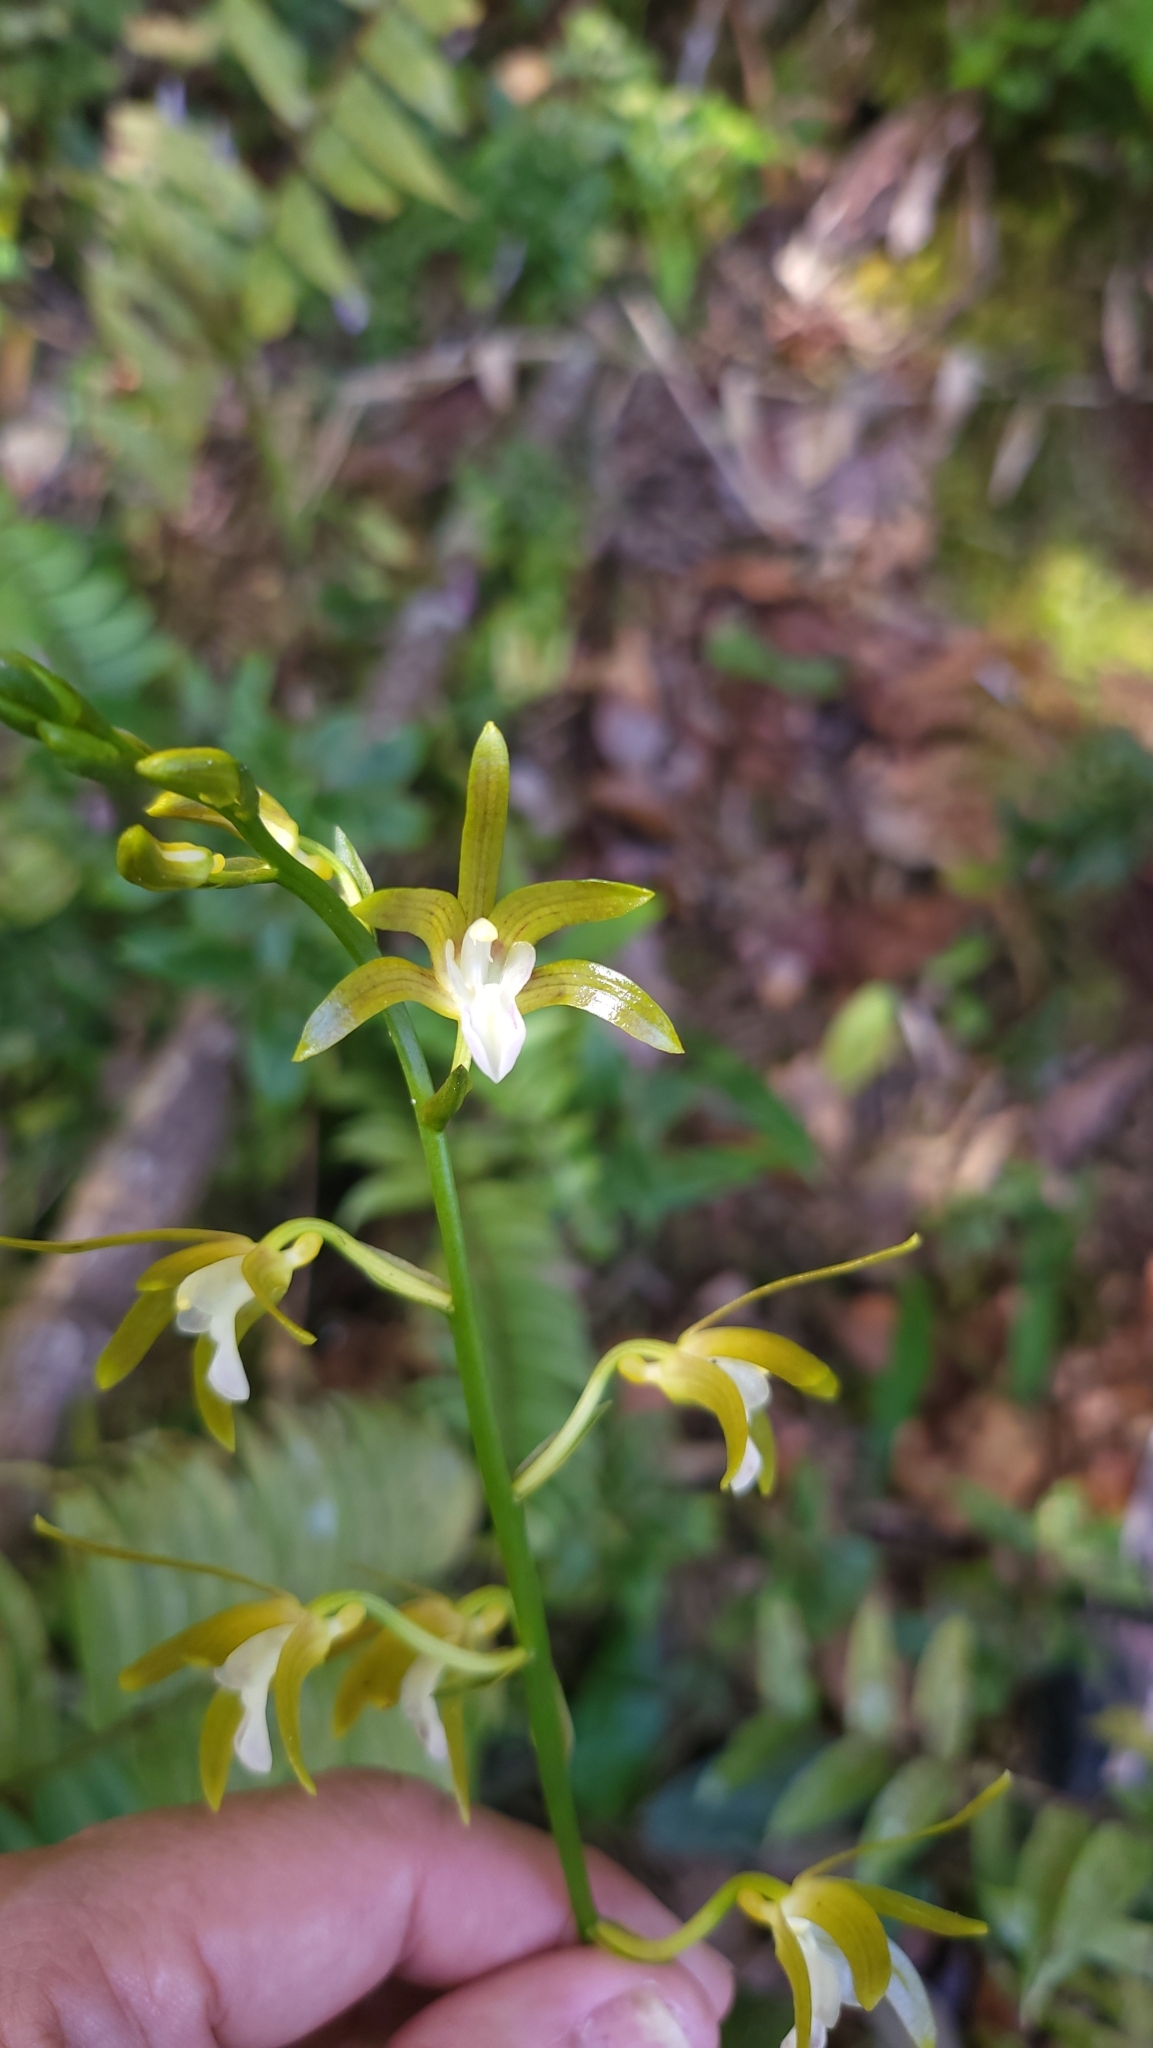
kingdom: Plantae
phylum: Tracheophyta
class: Liliopsida
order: Asparagales
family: Orchidaceae
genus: Chrysoglossum
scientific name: Chrysoglossum ensigerum
